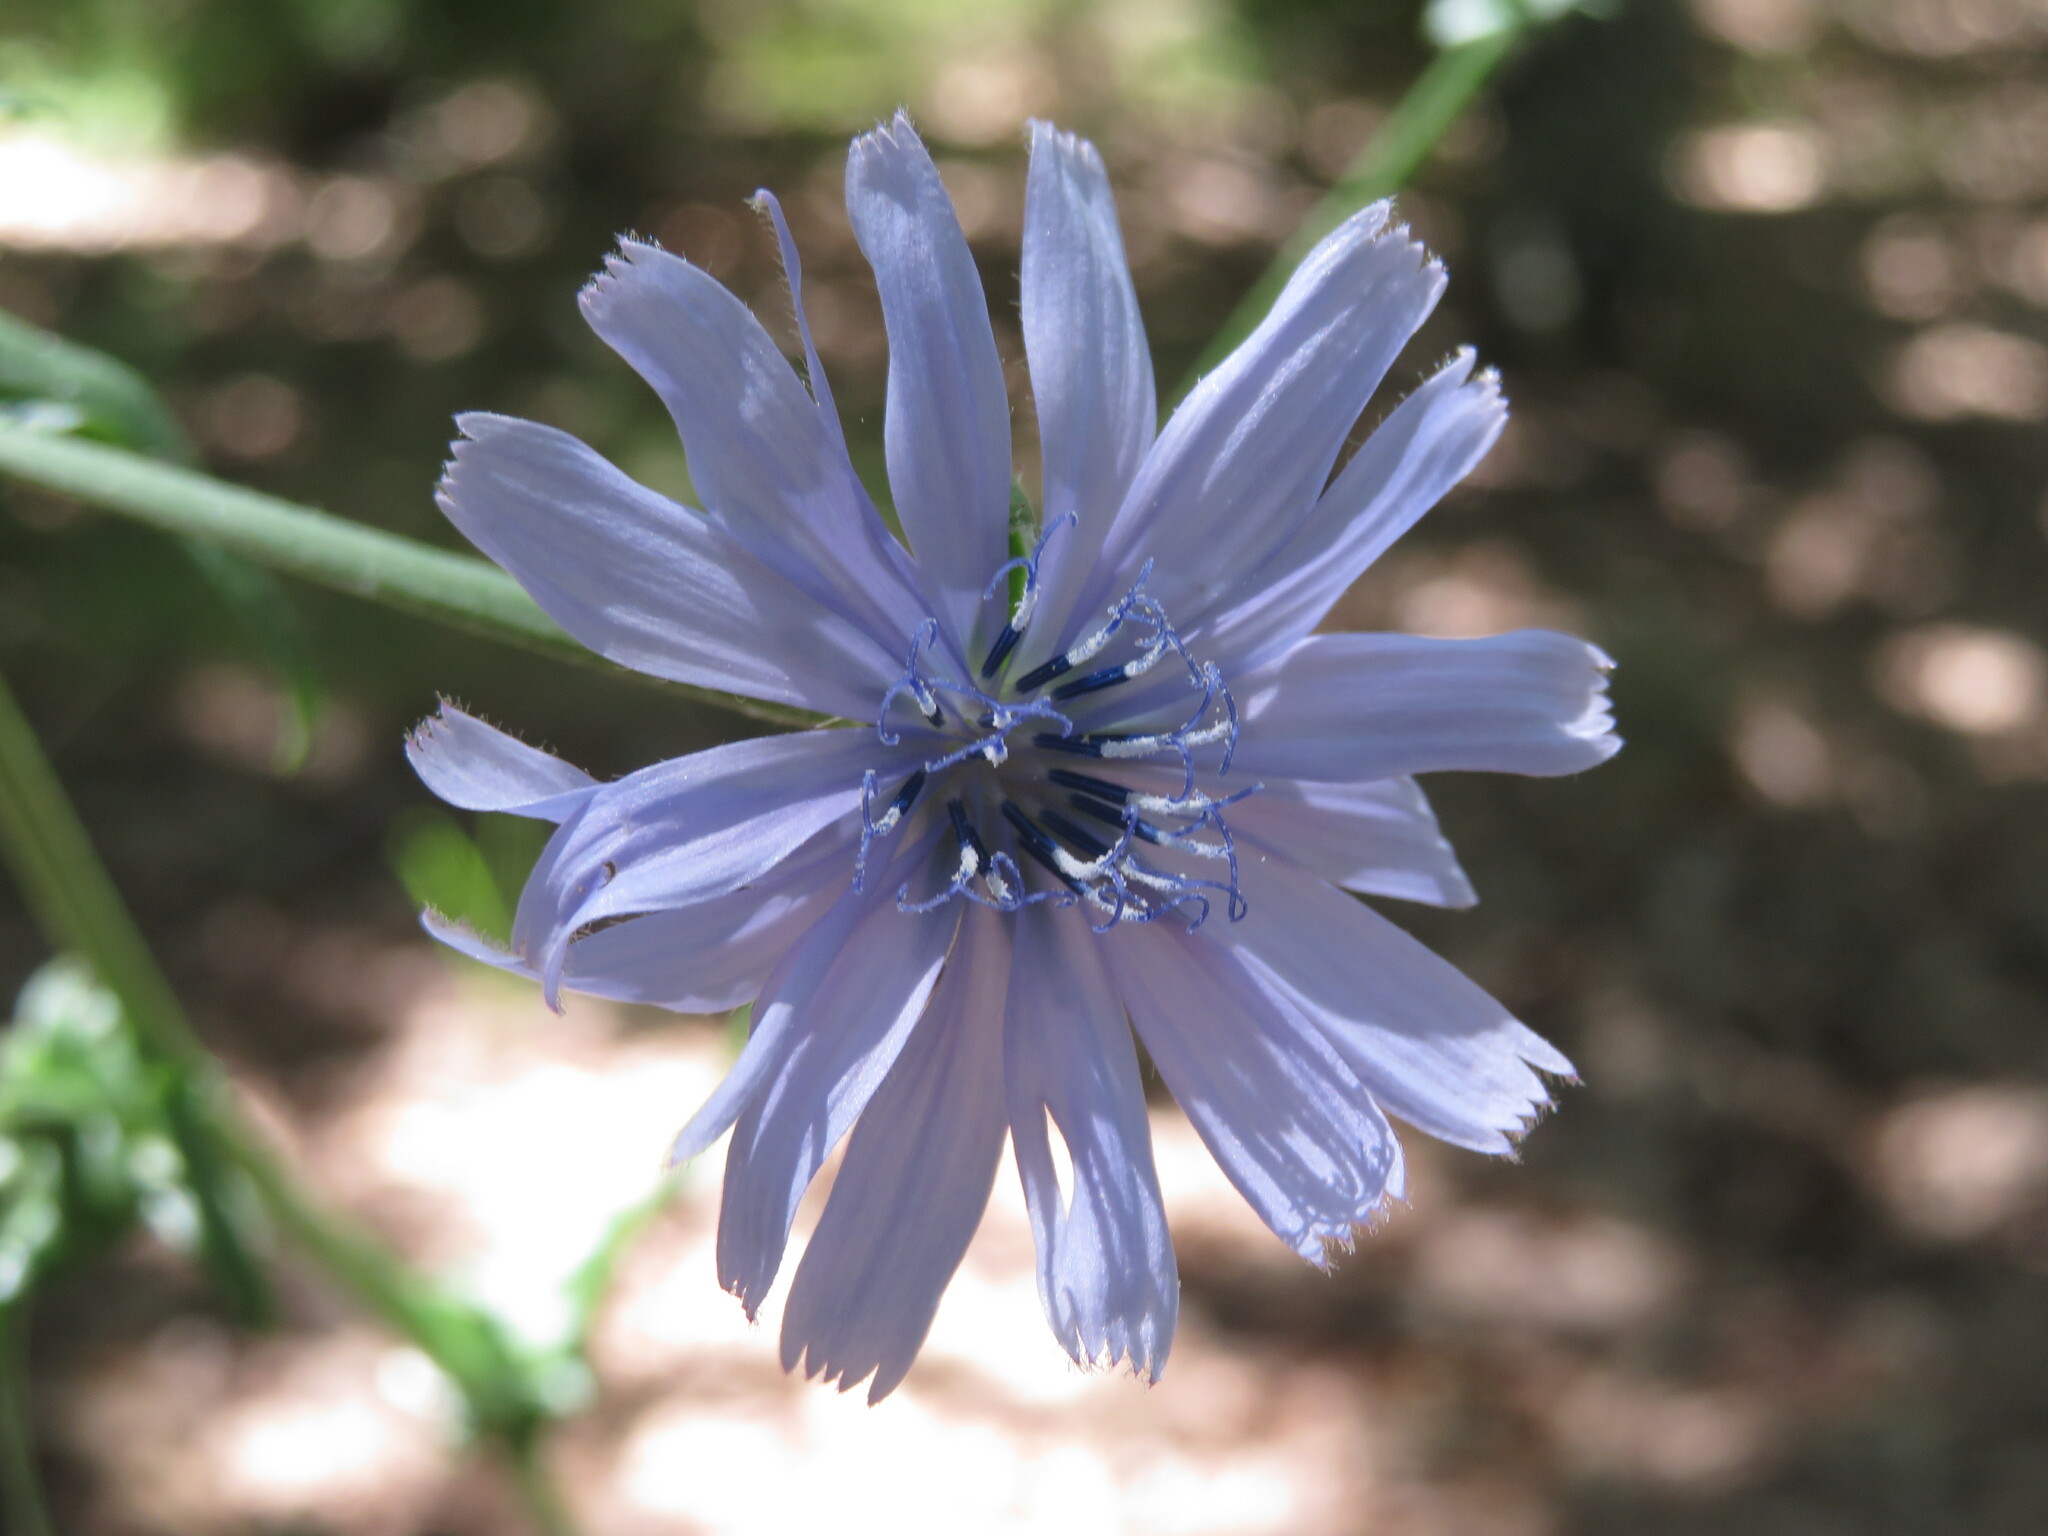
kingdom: Plantae
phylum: Tracheophyta
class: Magnoliopsida
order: Asterales
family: Asteraceae
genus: Cichorium
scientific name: Cichorium intybus
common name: Chicory
